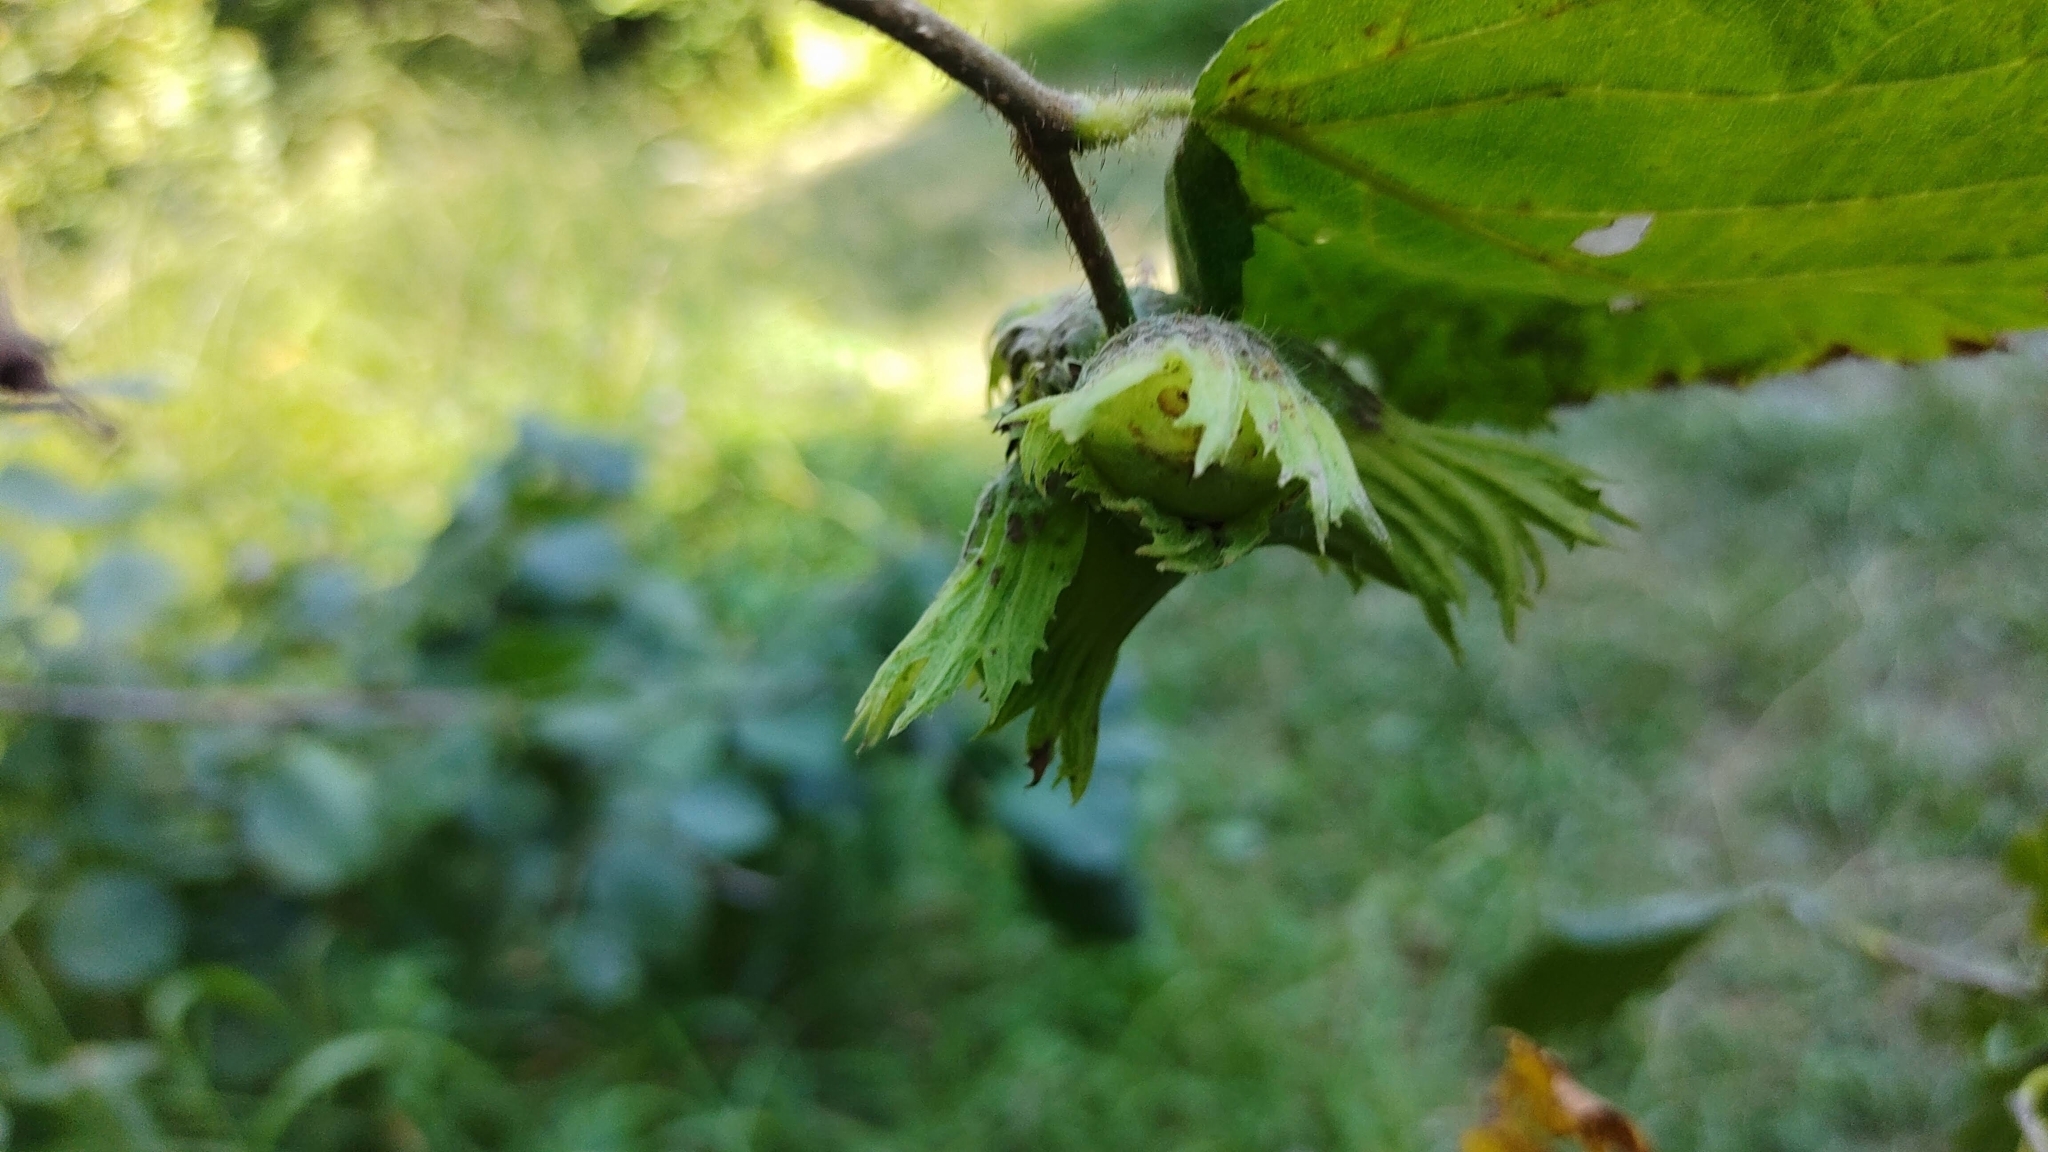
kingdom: Plantae
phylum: Tracheophyta
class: Magnoliopsida
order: Fagales
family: Betulaceae
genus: Corylus
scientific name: Corylus avellana
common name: European hazel
